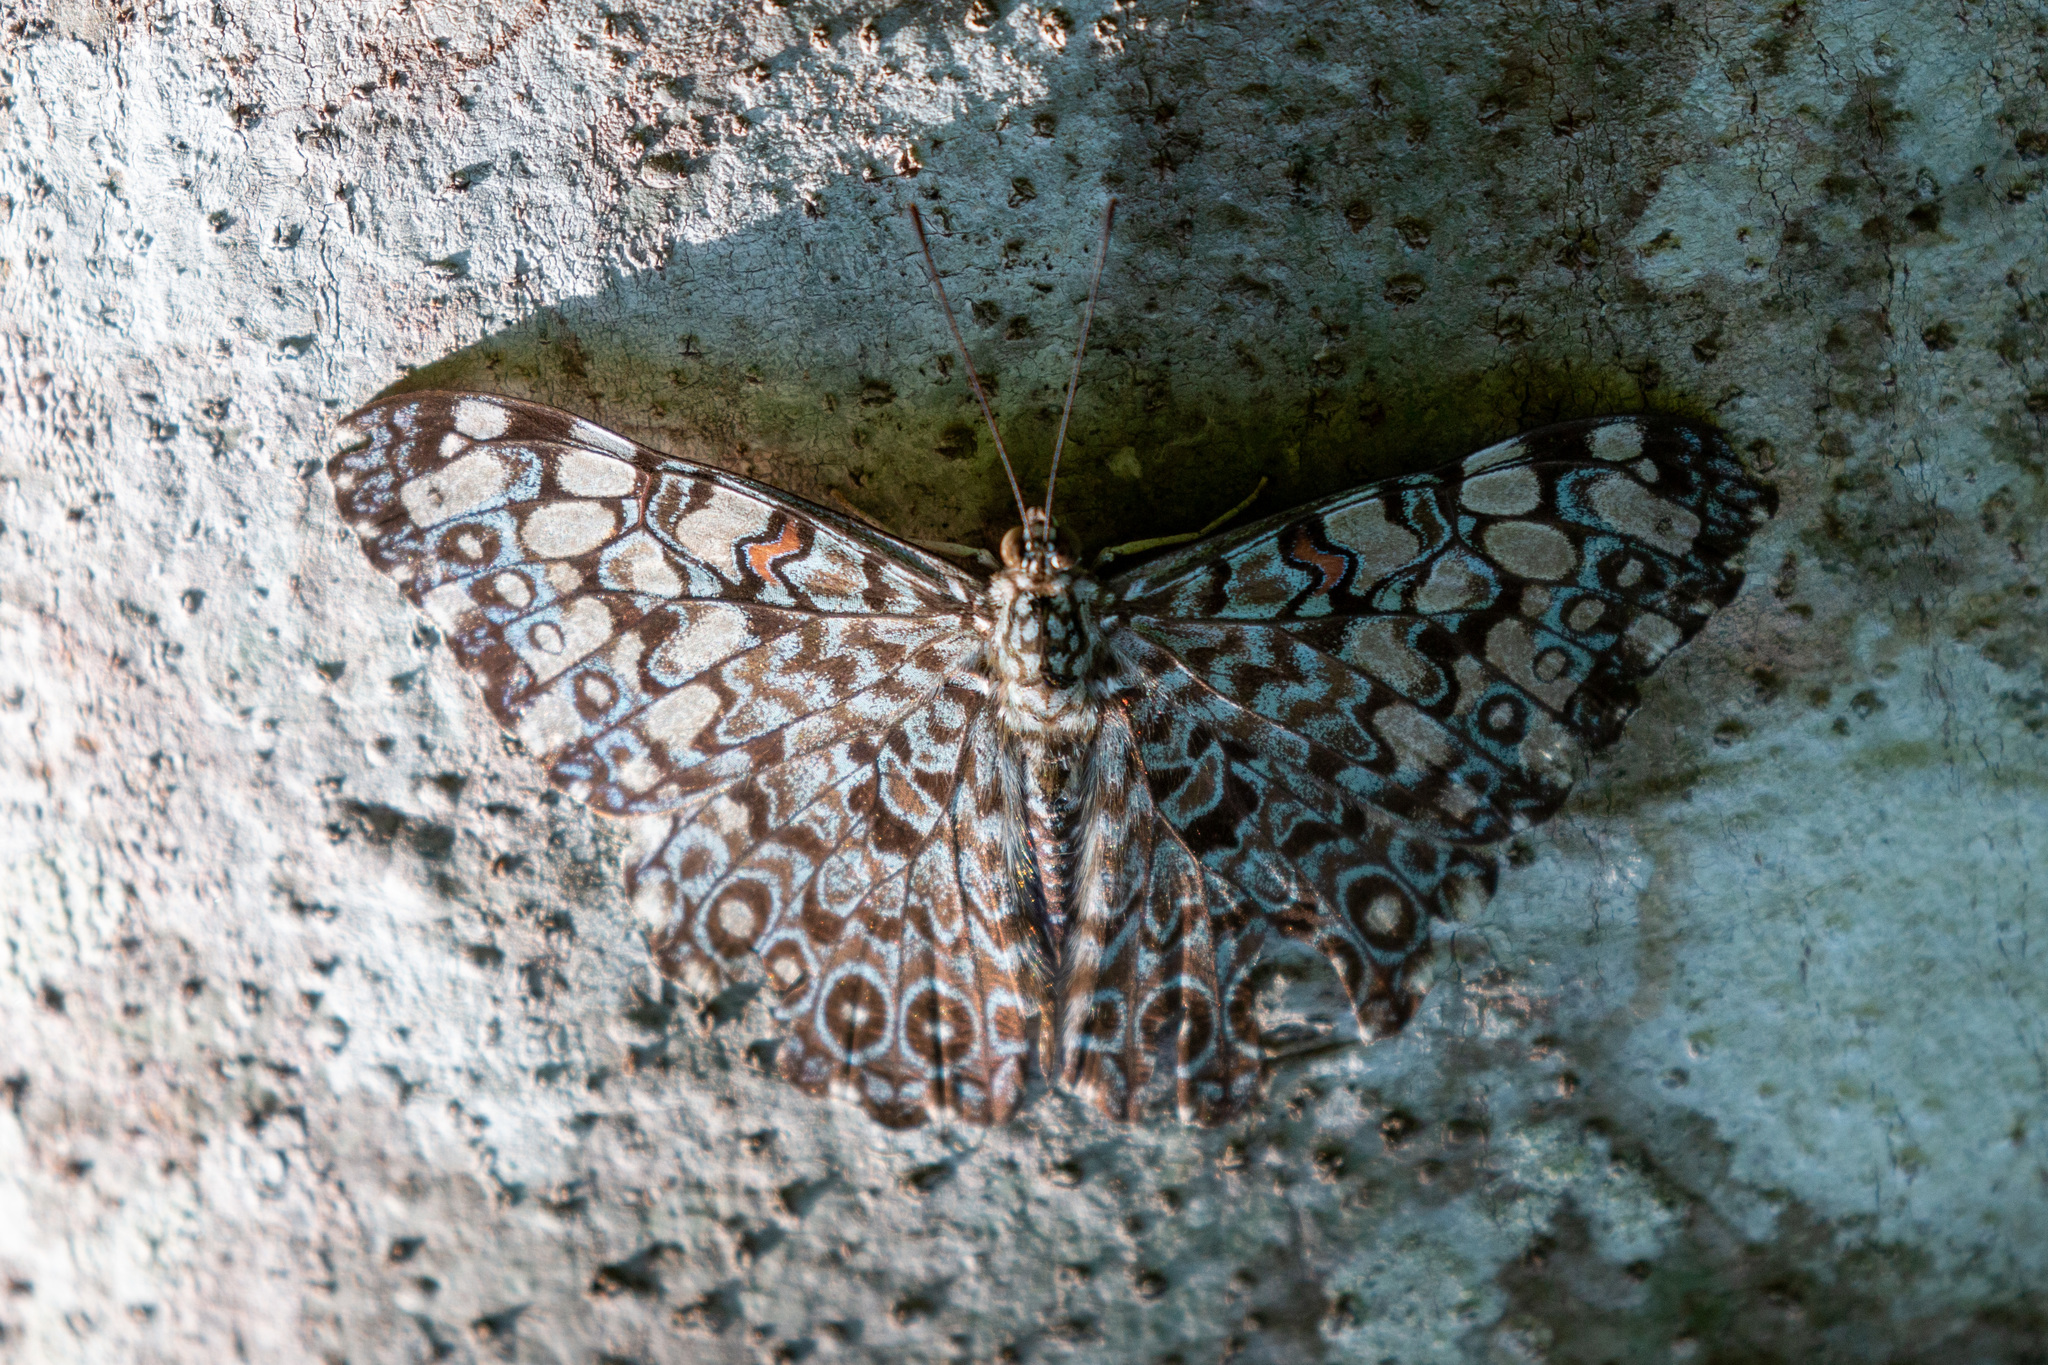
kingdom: Animalia
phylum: Arthropoda
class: Insecta
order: Lepidoptera
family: Nymphalidae
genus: Hamadryas
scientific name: Hamadryas feronia
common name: Variable cracker
